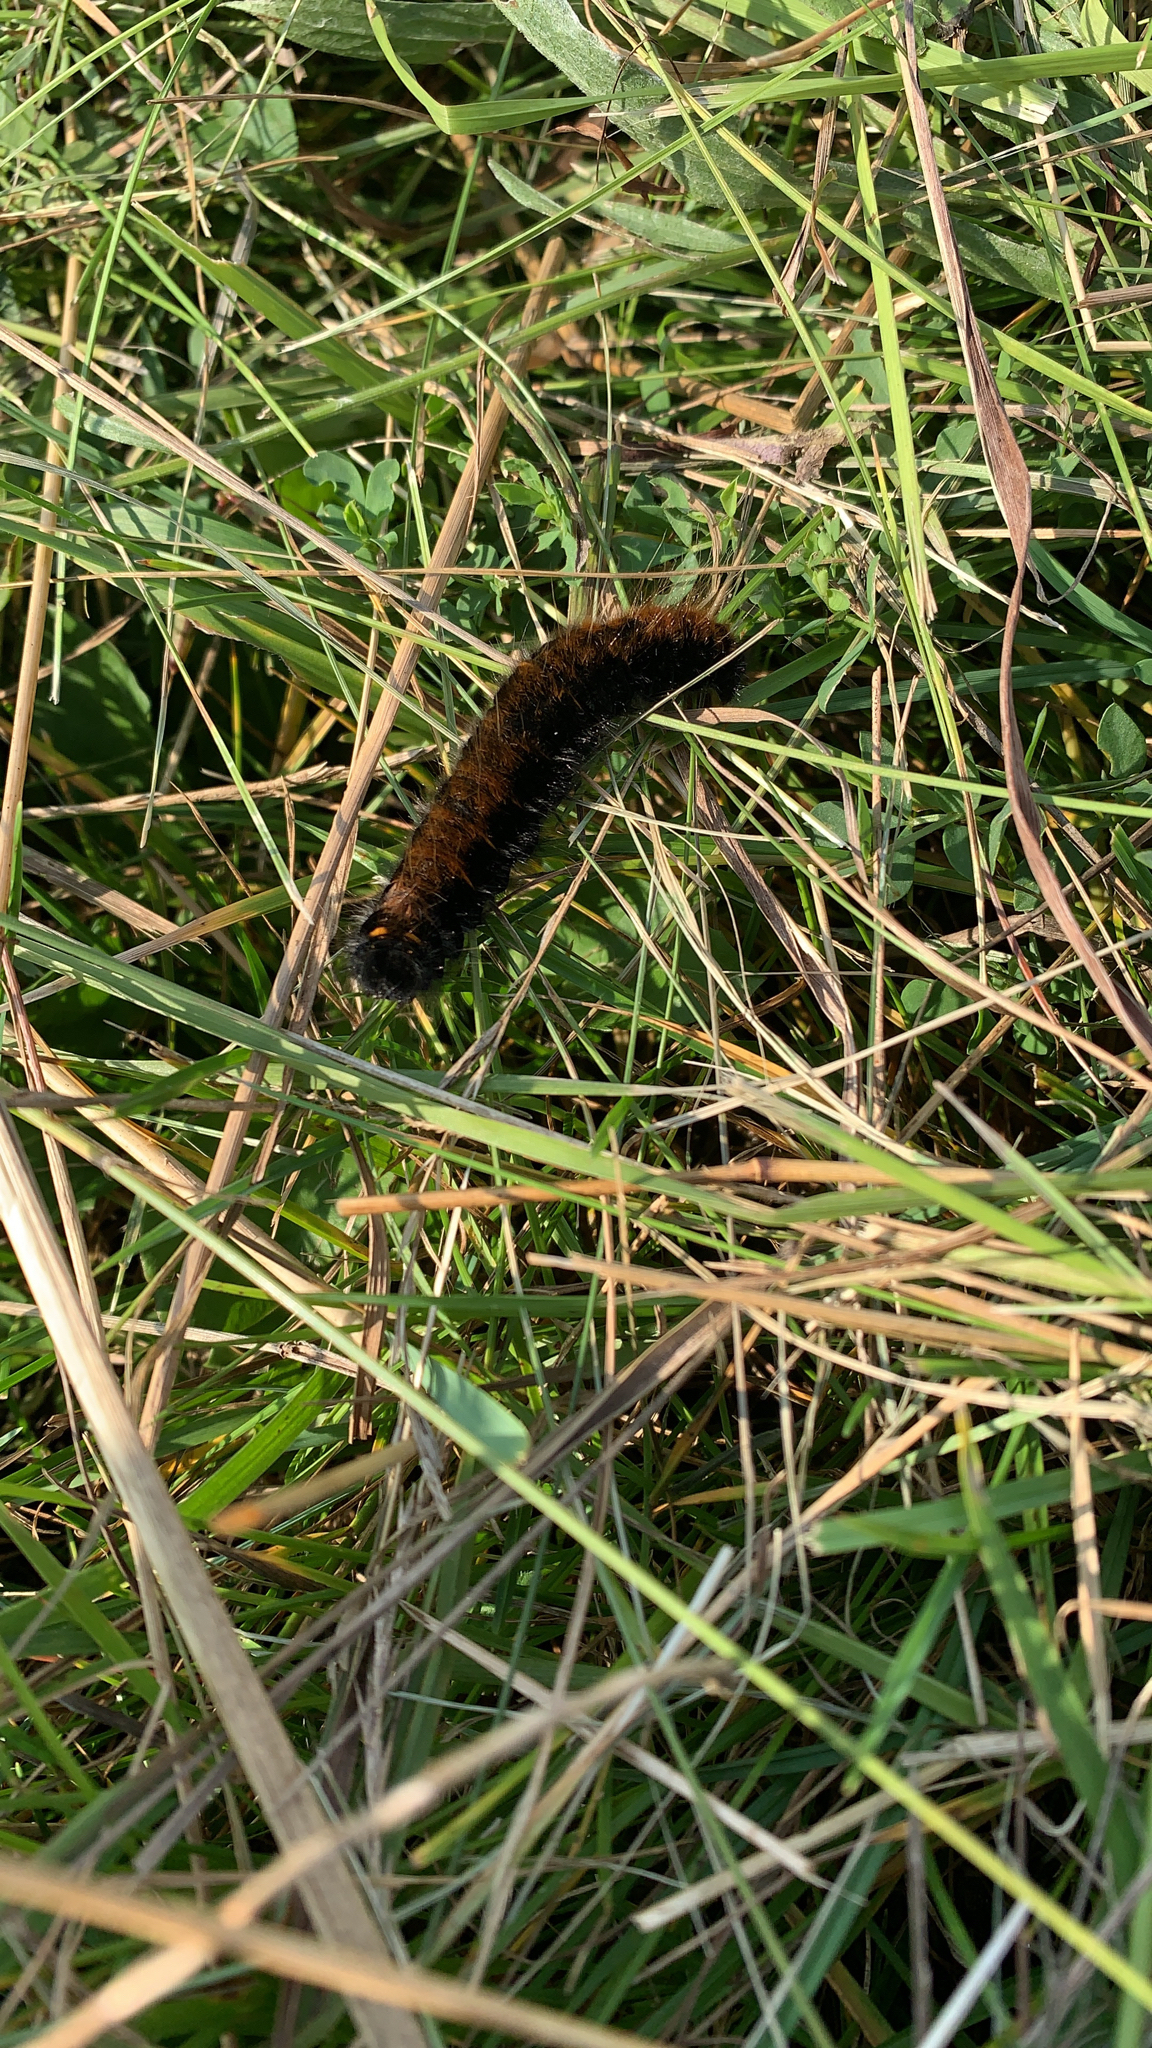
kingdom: Animalia
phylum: Arthropoda
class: Insecta
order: Lepidoptera
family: Lasiocampidae
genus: Macrothylacia
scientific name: Macrothylacia rubi
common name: Fox moth
